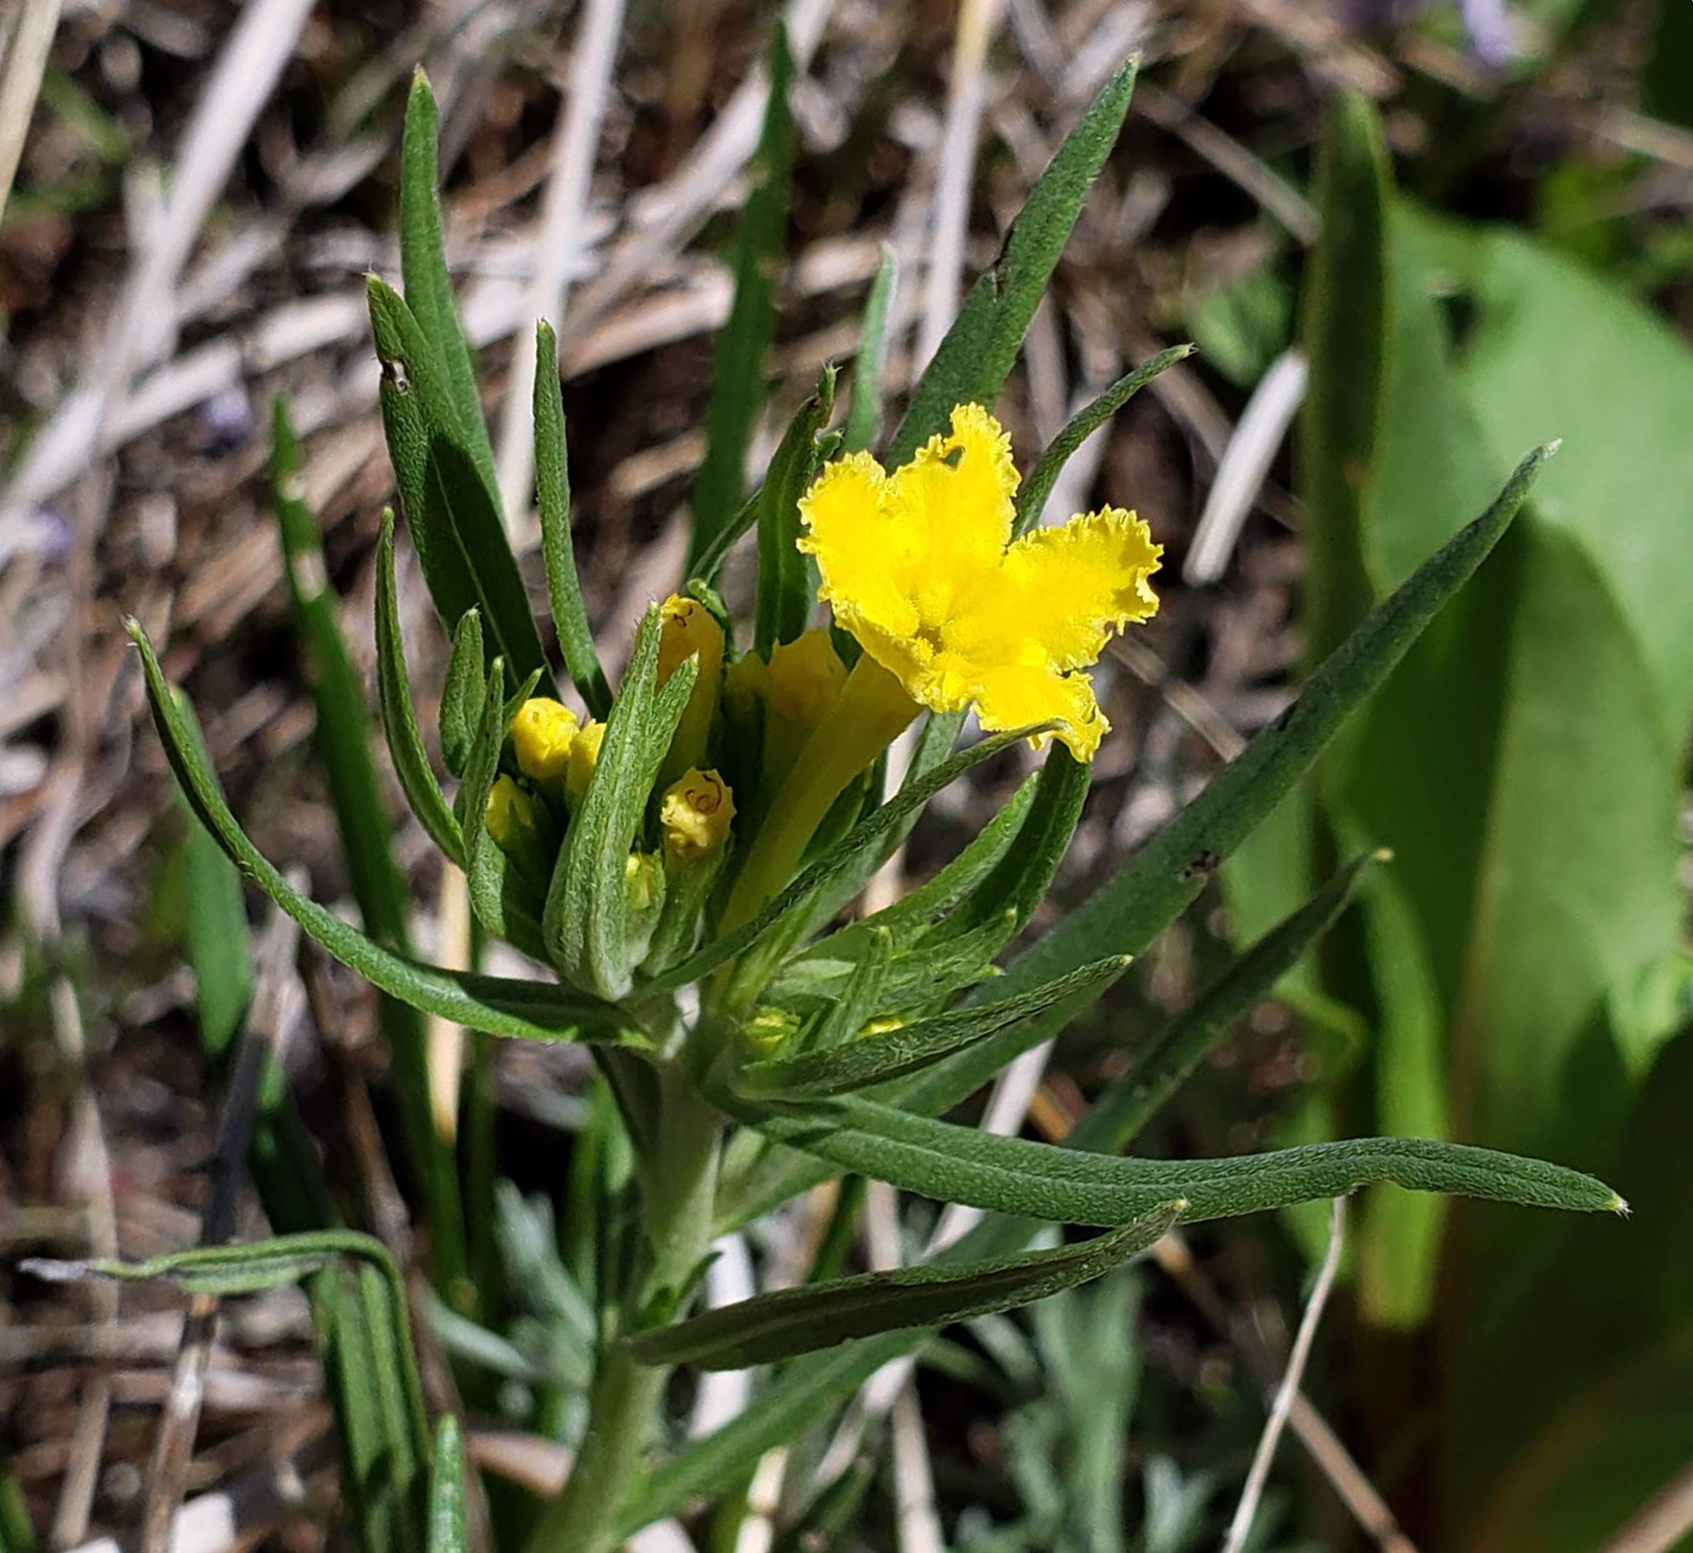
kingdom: Plantae
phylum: Tracheophyta
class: Magnoliopsida
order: Boraginales
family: Boraginaceae
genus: Lithospermum
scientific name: Lithospermum incisum
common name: Fringed gromwell
